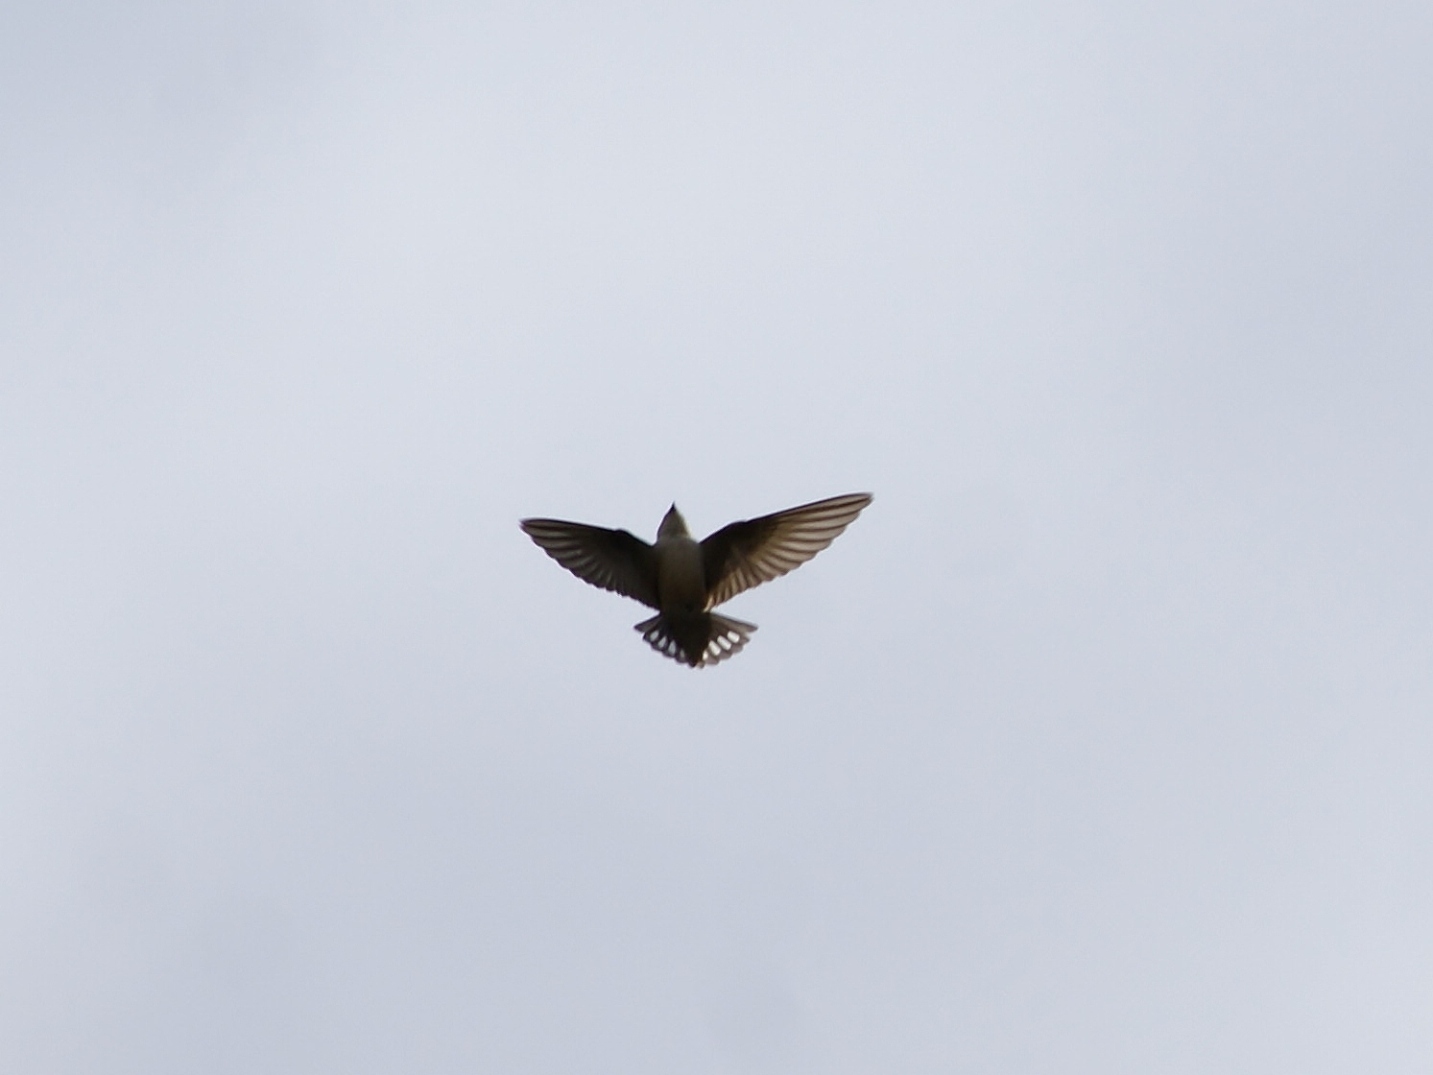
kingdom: Animalia
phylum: Chordata
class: Aves
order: Passeriformes
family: Hirundinidae
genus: Ptyonoprogne
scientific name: Ptyonoprogne rupestris
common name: Eurasian crag martin
